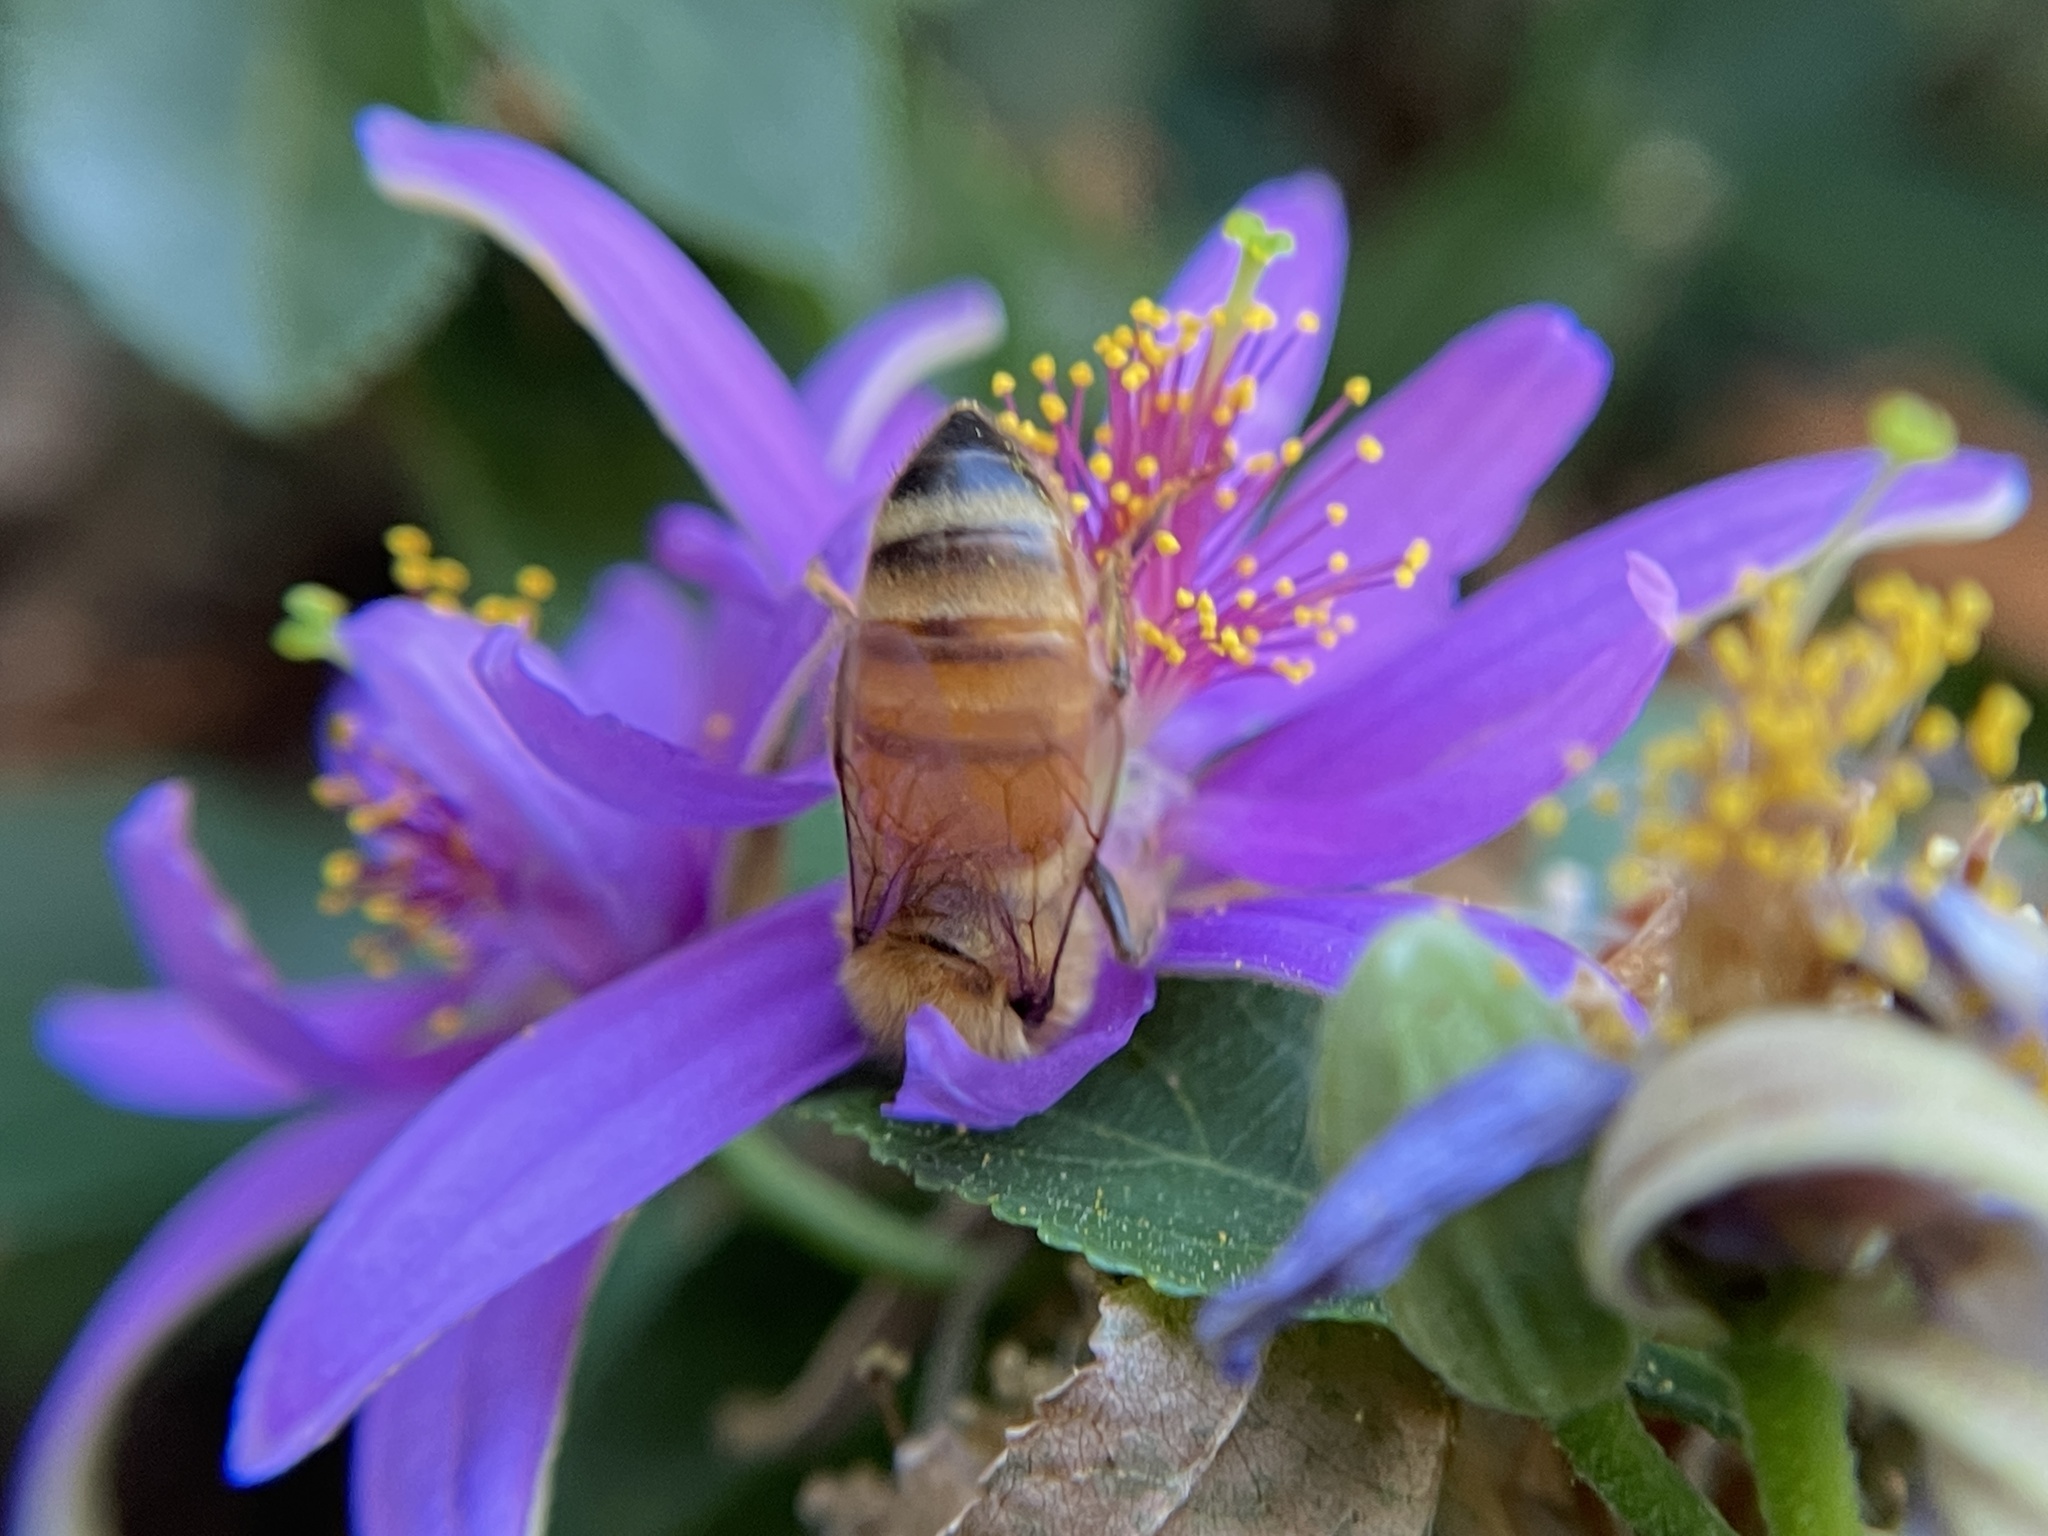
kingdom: Animalia
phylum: Arthropoda
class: Insecta
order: Hymenoptera
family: Apidae
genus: Apis
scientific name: Apis mellifera
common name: Honey bee
